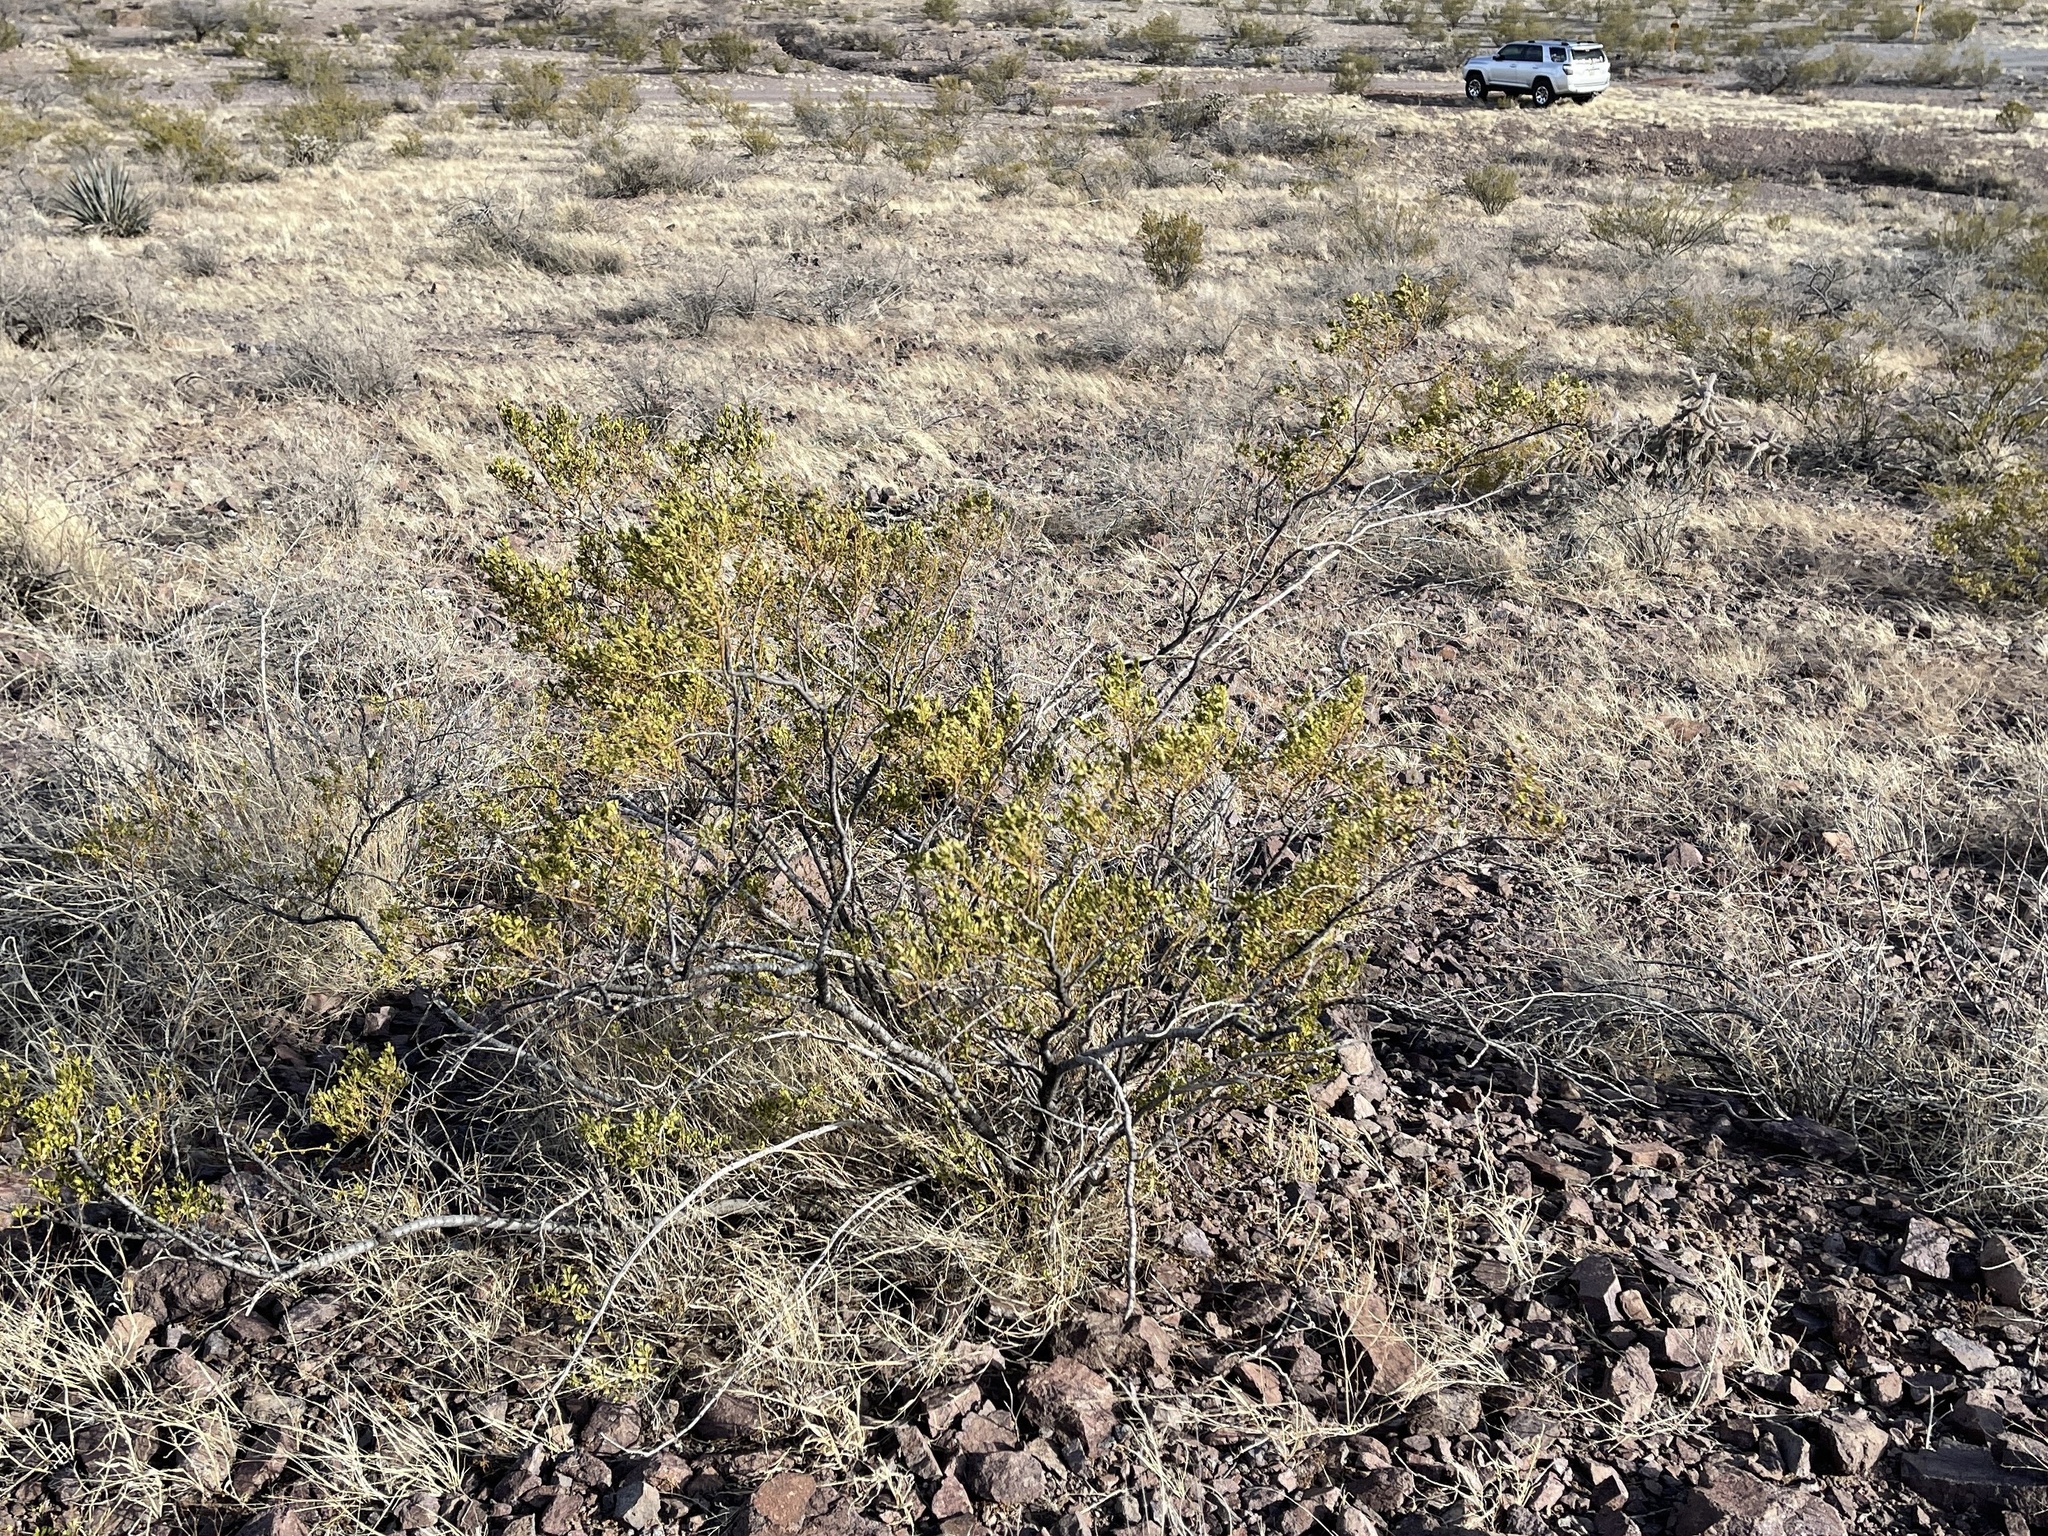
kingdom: Plantae
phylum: Tracheophyta
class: Magnoliopsida
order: Zygophyllales
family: Zygophyllaceae
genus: Larrea
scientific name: Larrea tridentata
